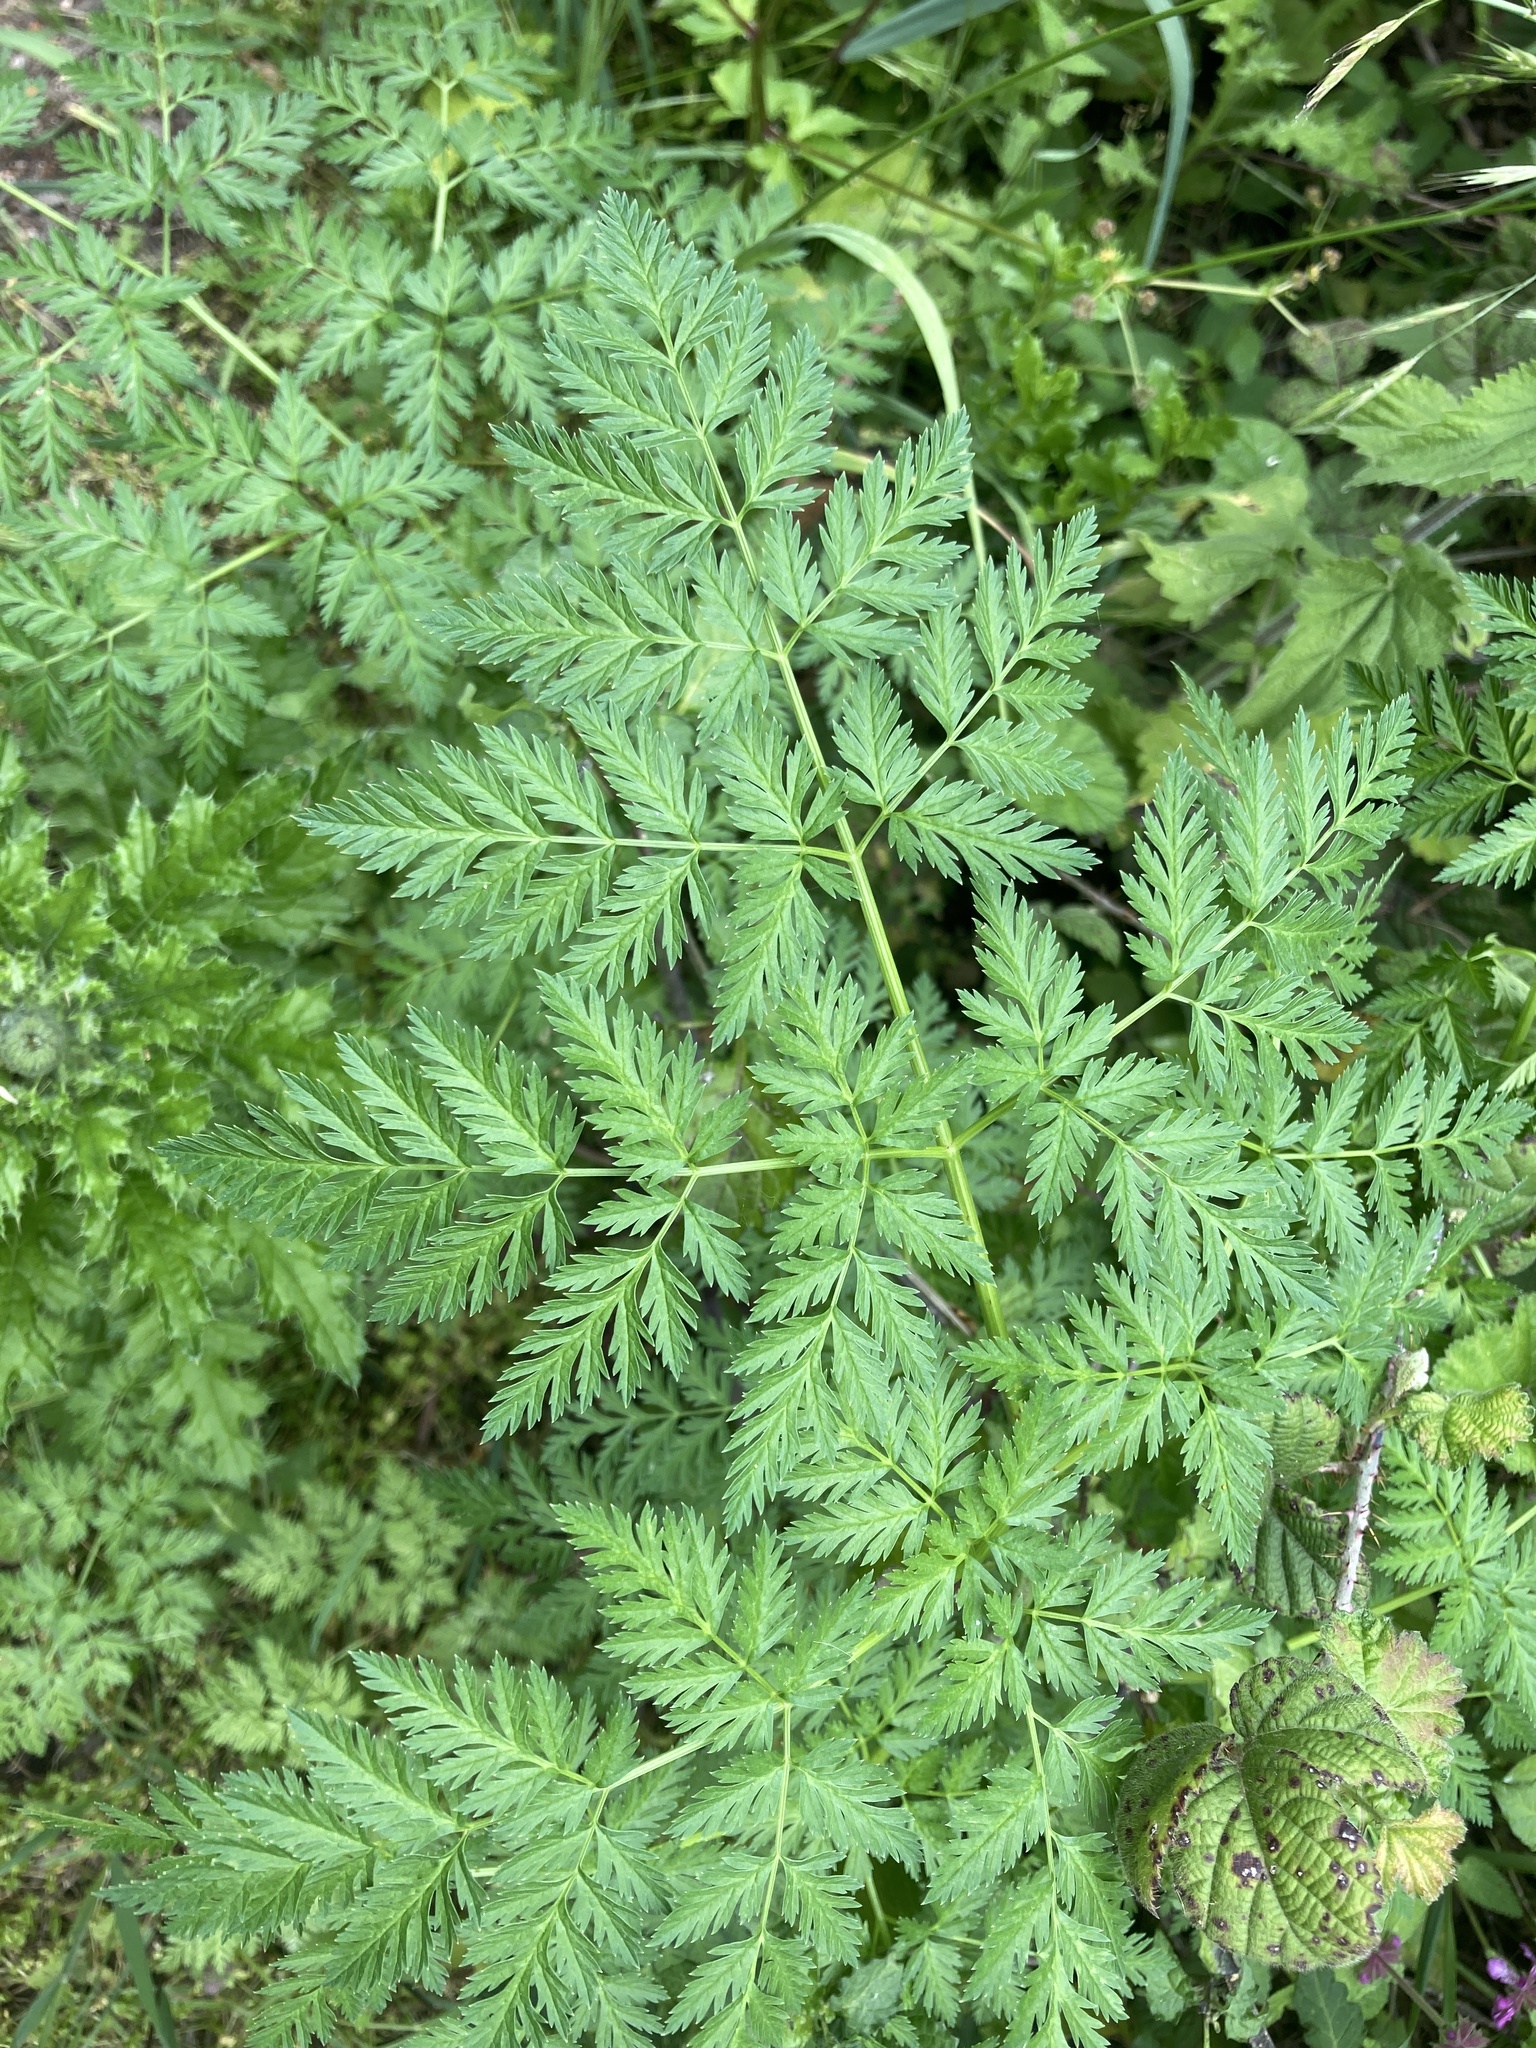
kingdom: Plantae
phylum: Tracheophyta
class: Magnoliopsida
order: Apiales
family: Apiaceae
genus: Conium
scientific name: Conium maculatum
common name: Hemlock
